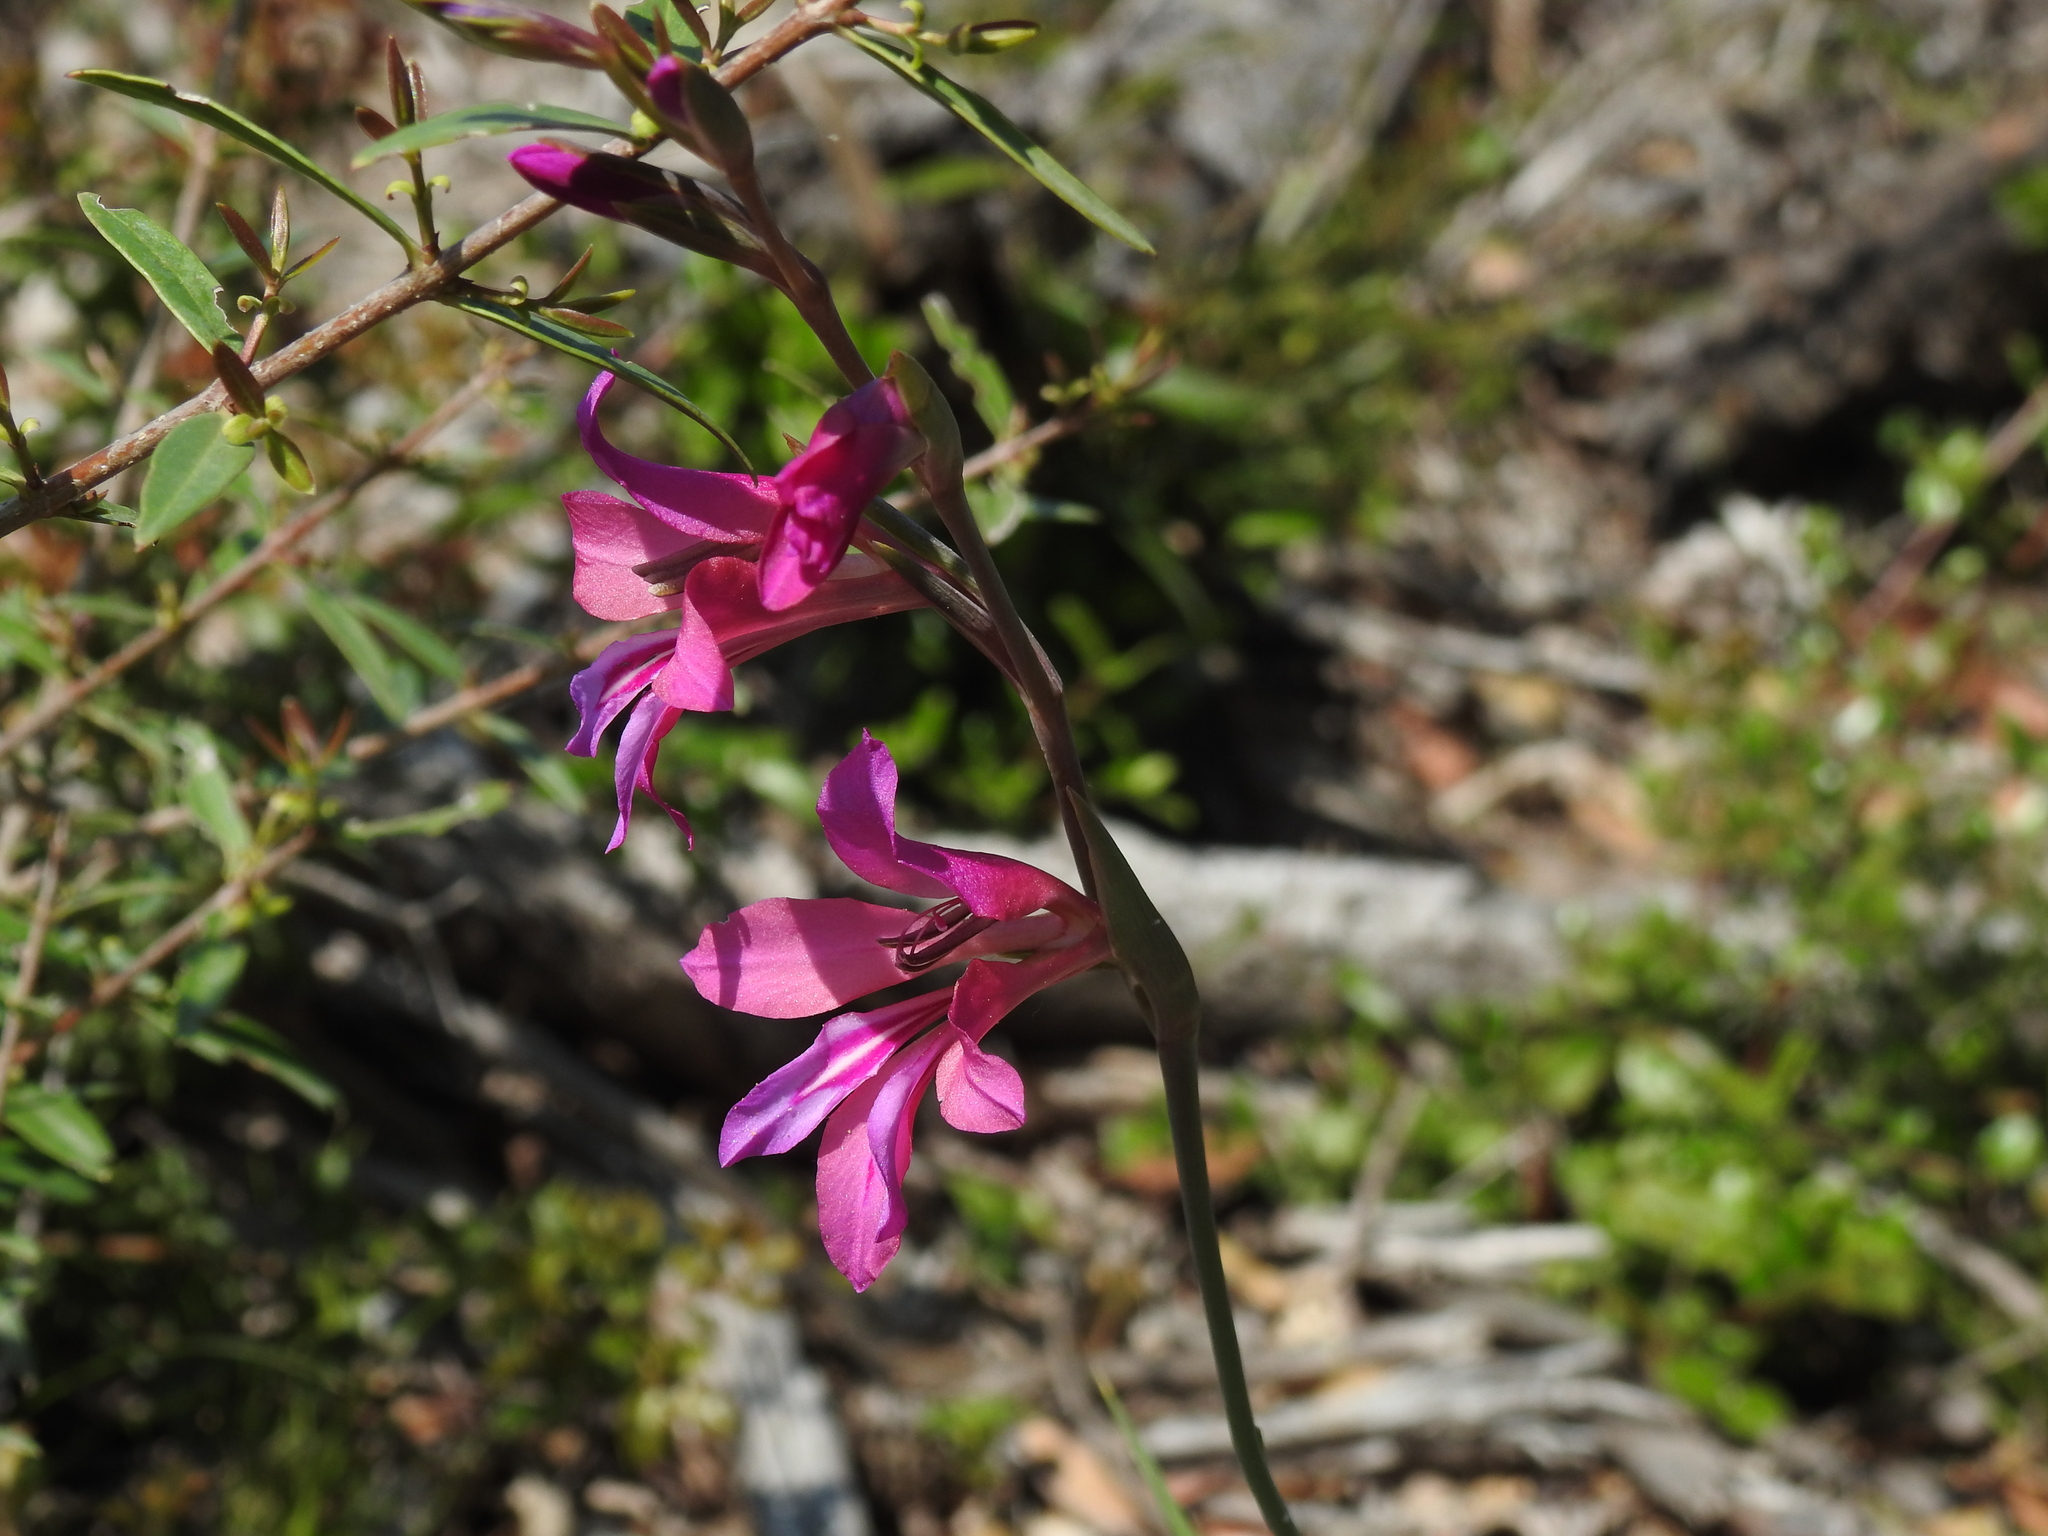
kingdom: Plantae
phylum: Tracheophyta
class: Liliopsida
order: Asparagales
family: Iridaceae
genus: Gladiolus
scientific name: Gladiolus dubius
